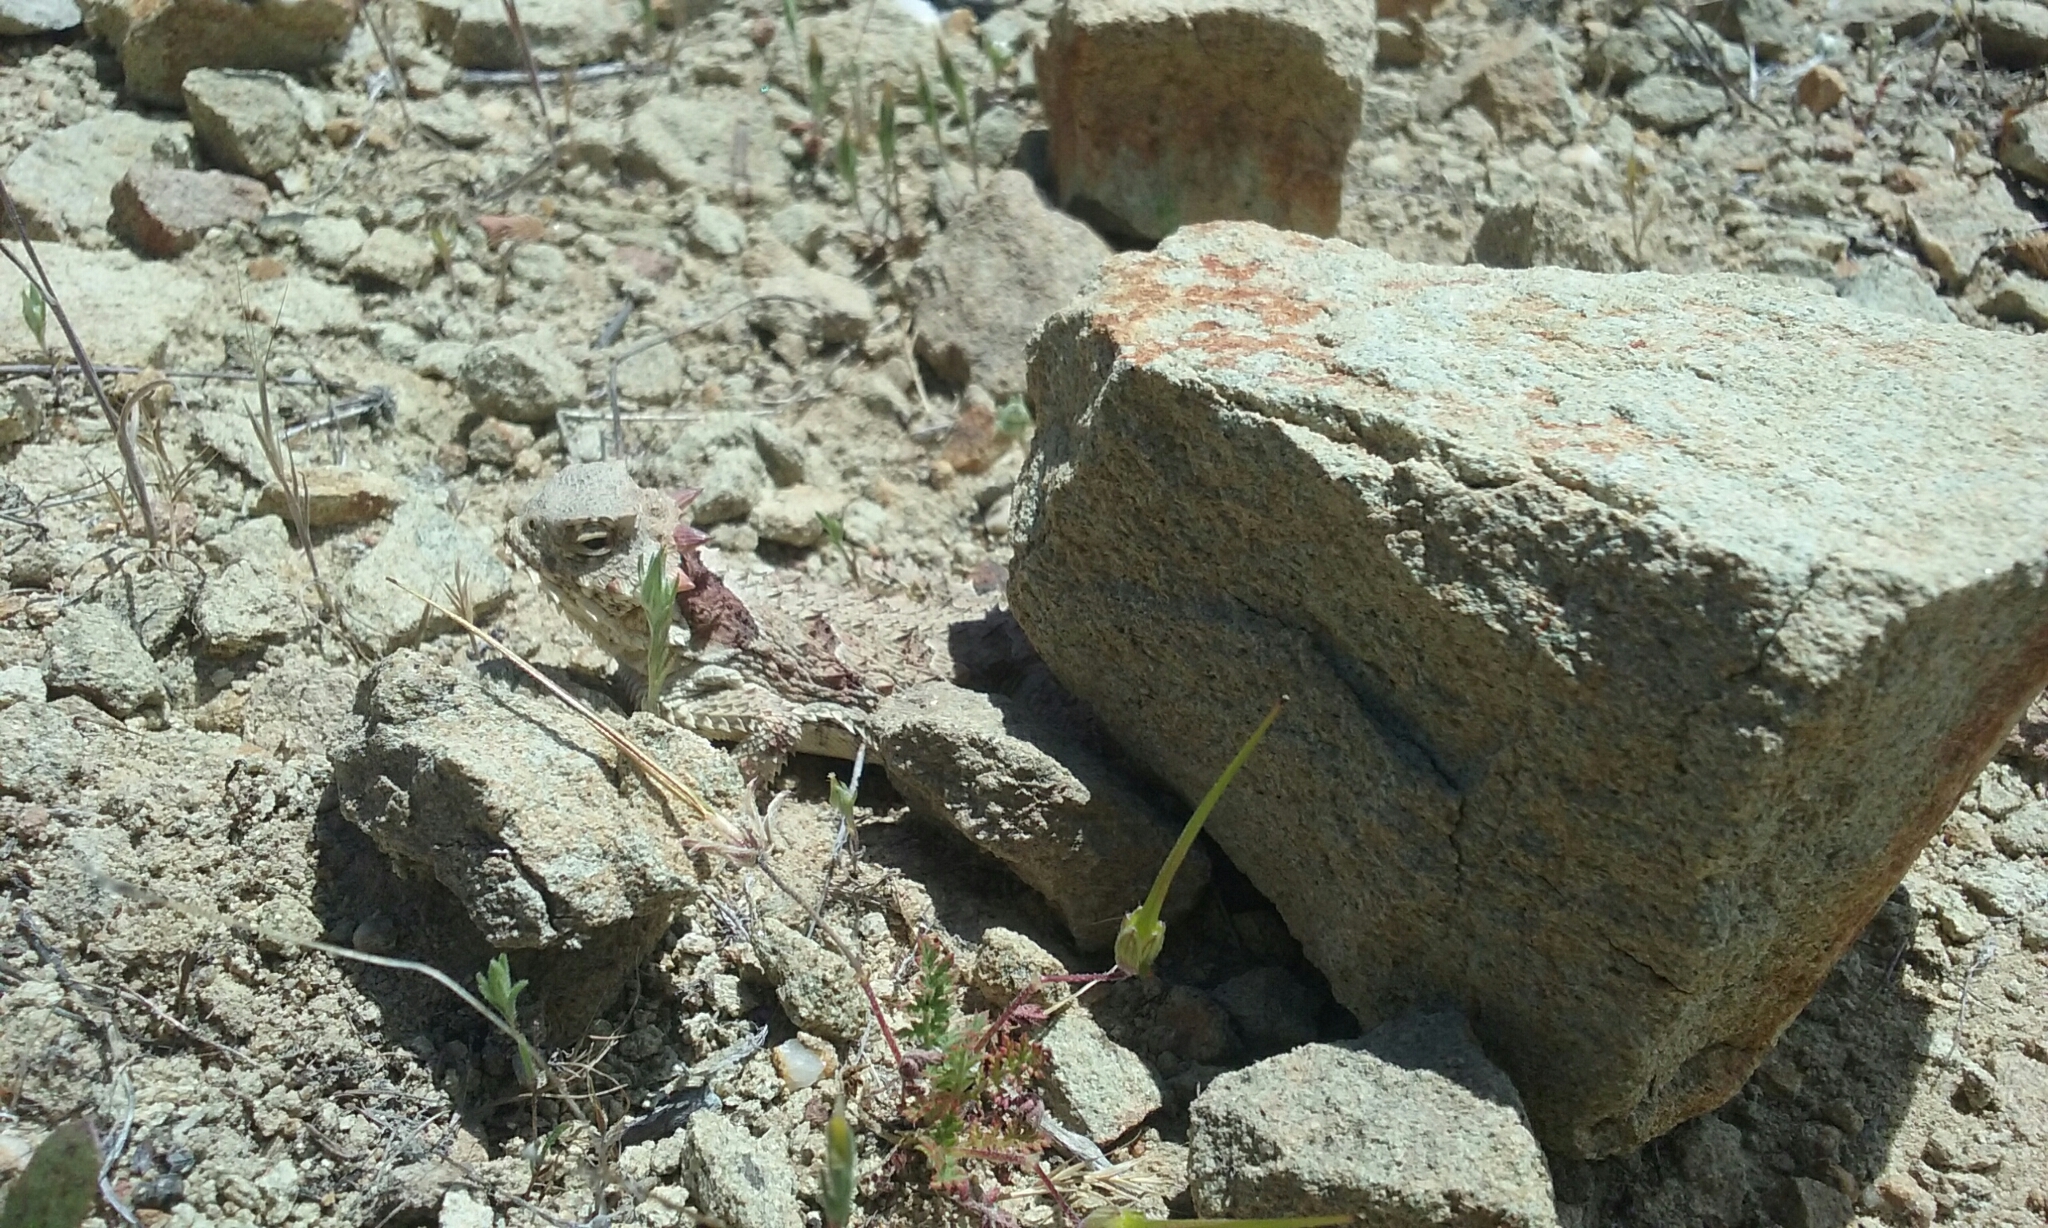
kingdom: Animalia
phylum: Chordata
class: Squamata
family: Phrynosomatidae
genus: Phrynosoma
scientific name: Phrynosoma blainvillii
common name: San diego horned lizard
